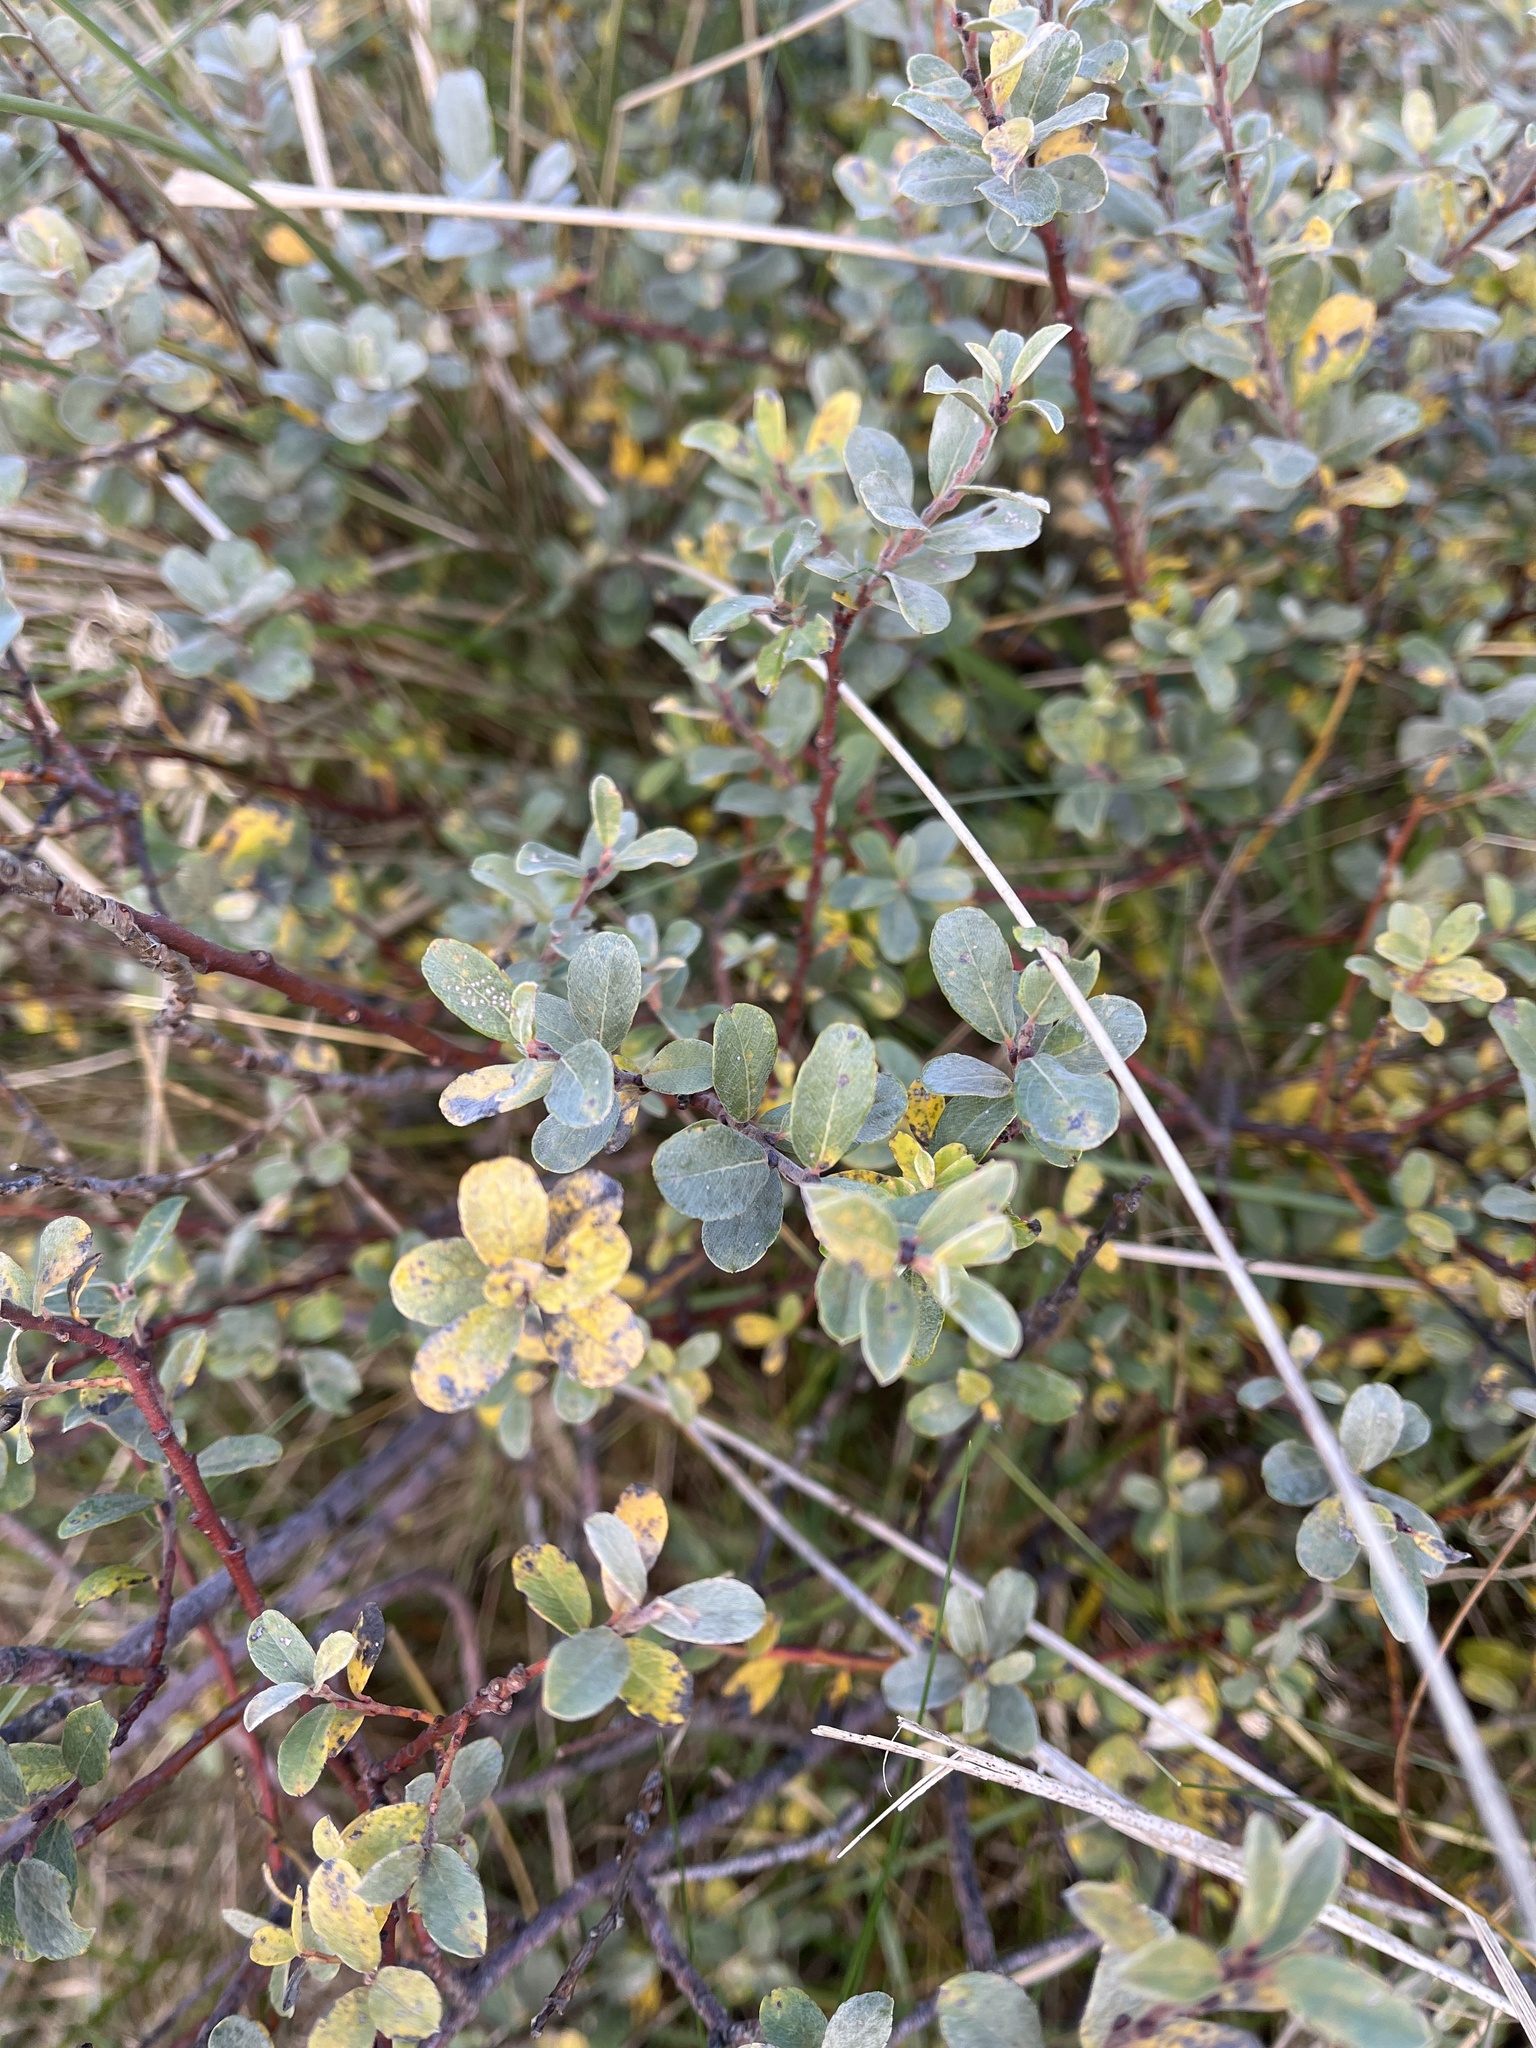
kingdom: Plantae
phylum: Tracheophyta
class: Magnoliopsida
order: Malpighiales
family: Salicaceae
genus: Salix
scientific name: Salix repens
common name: Creeping willow
